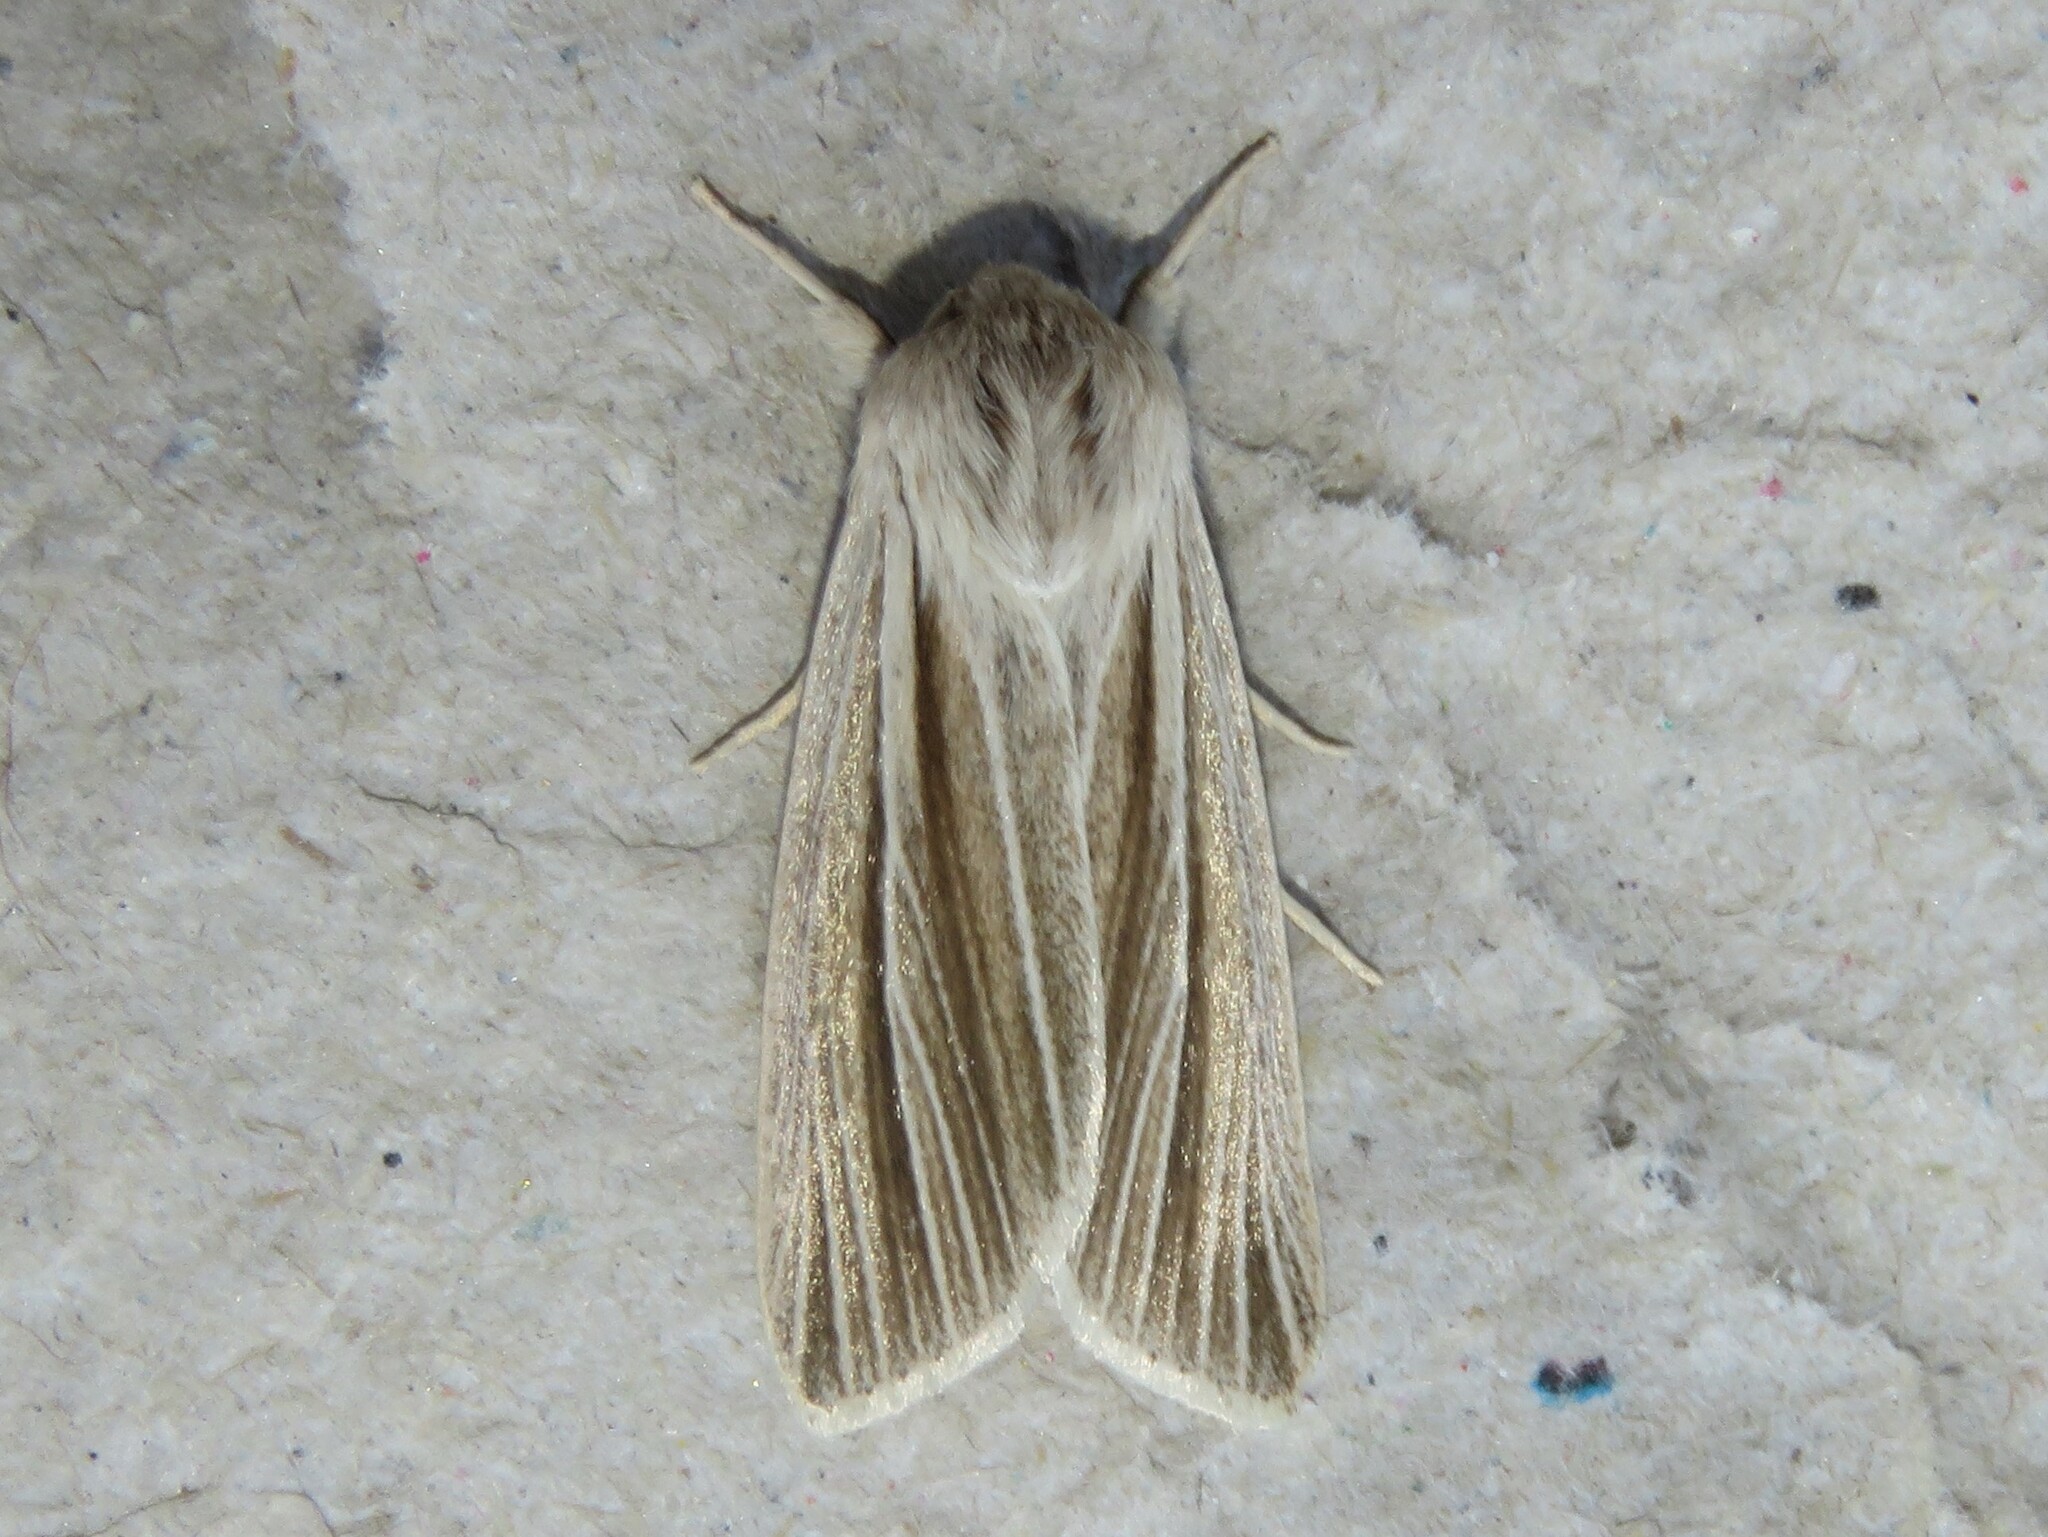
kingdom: Animalia
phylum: Arthropoda
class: Insecta
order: Lepidoptera
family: Noctuidae
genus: Acronicta
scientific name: Acronicta insularis
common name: Henry's marsh moth
